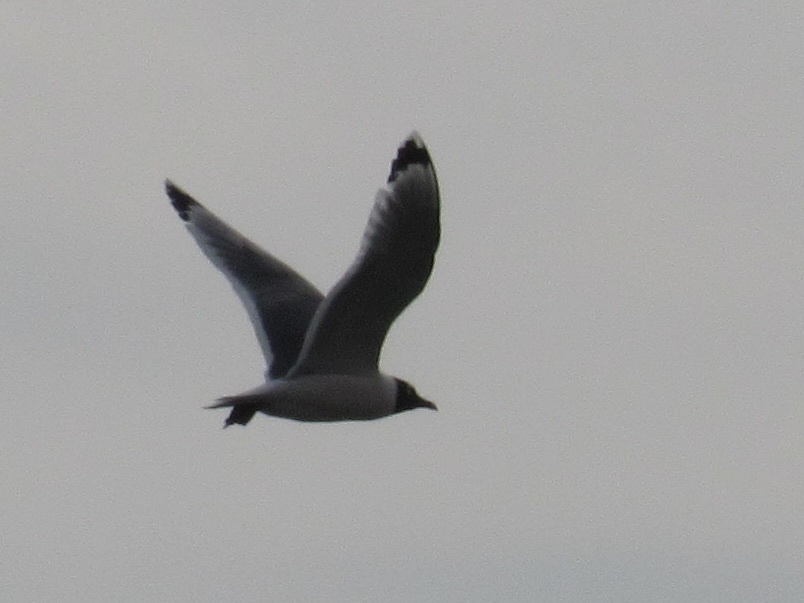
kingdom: Animalia
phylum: Chordata
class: Aves
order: Charadriiformes
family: Laridae
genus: Leucophaeus
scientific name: Leucophaeus pipixcan
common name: Franklin's gull
